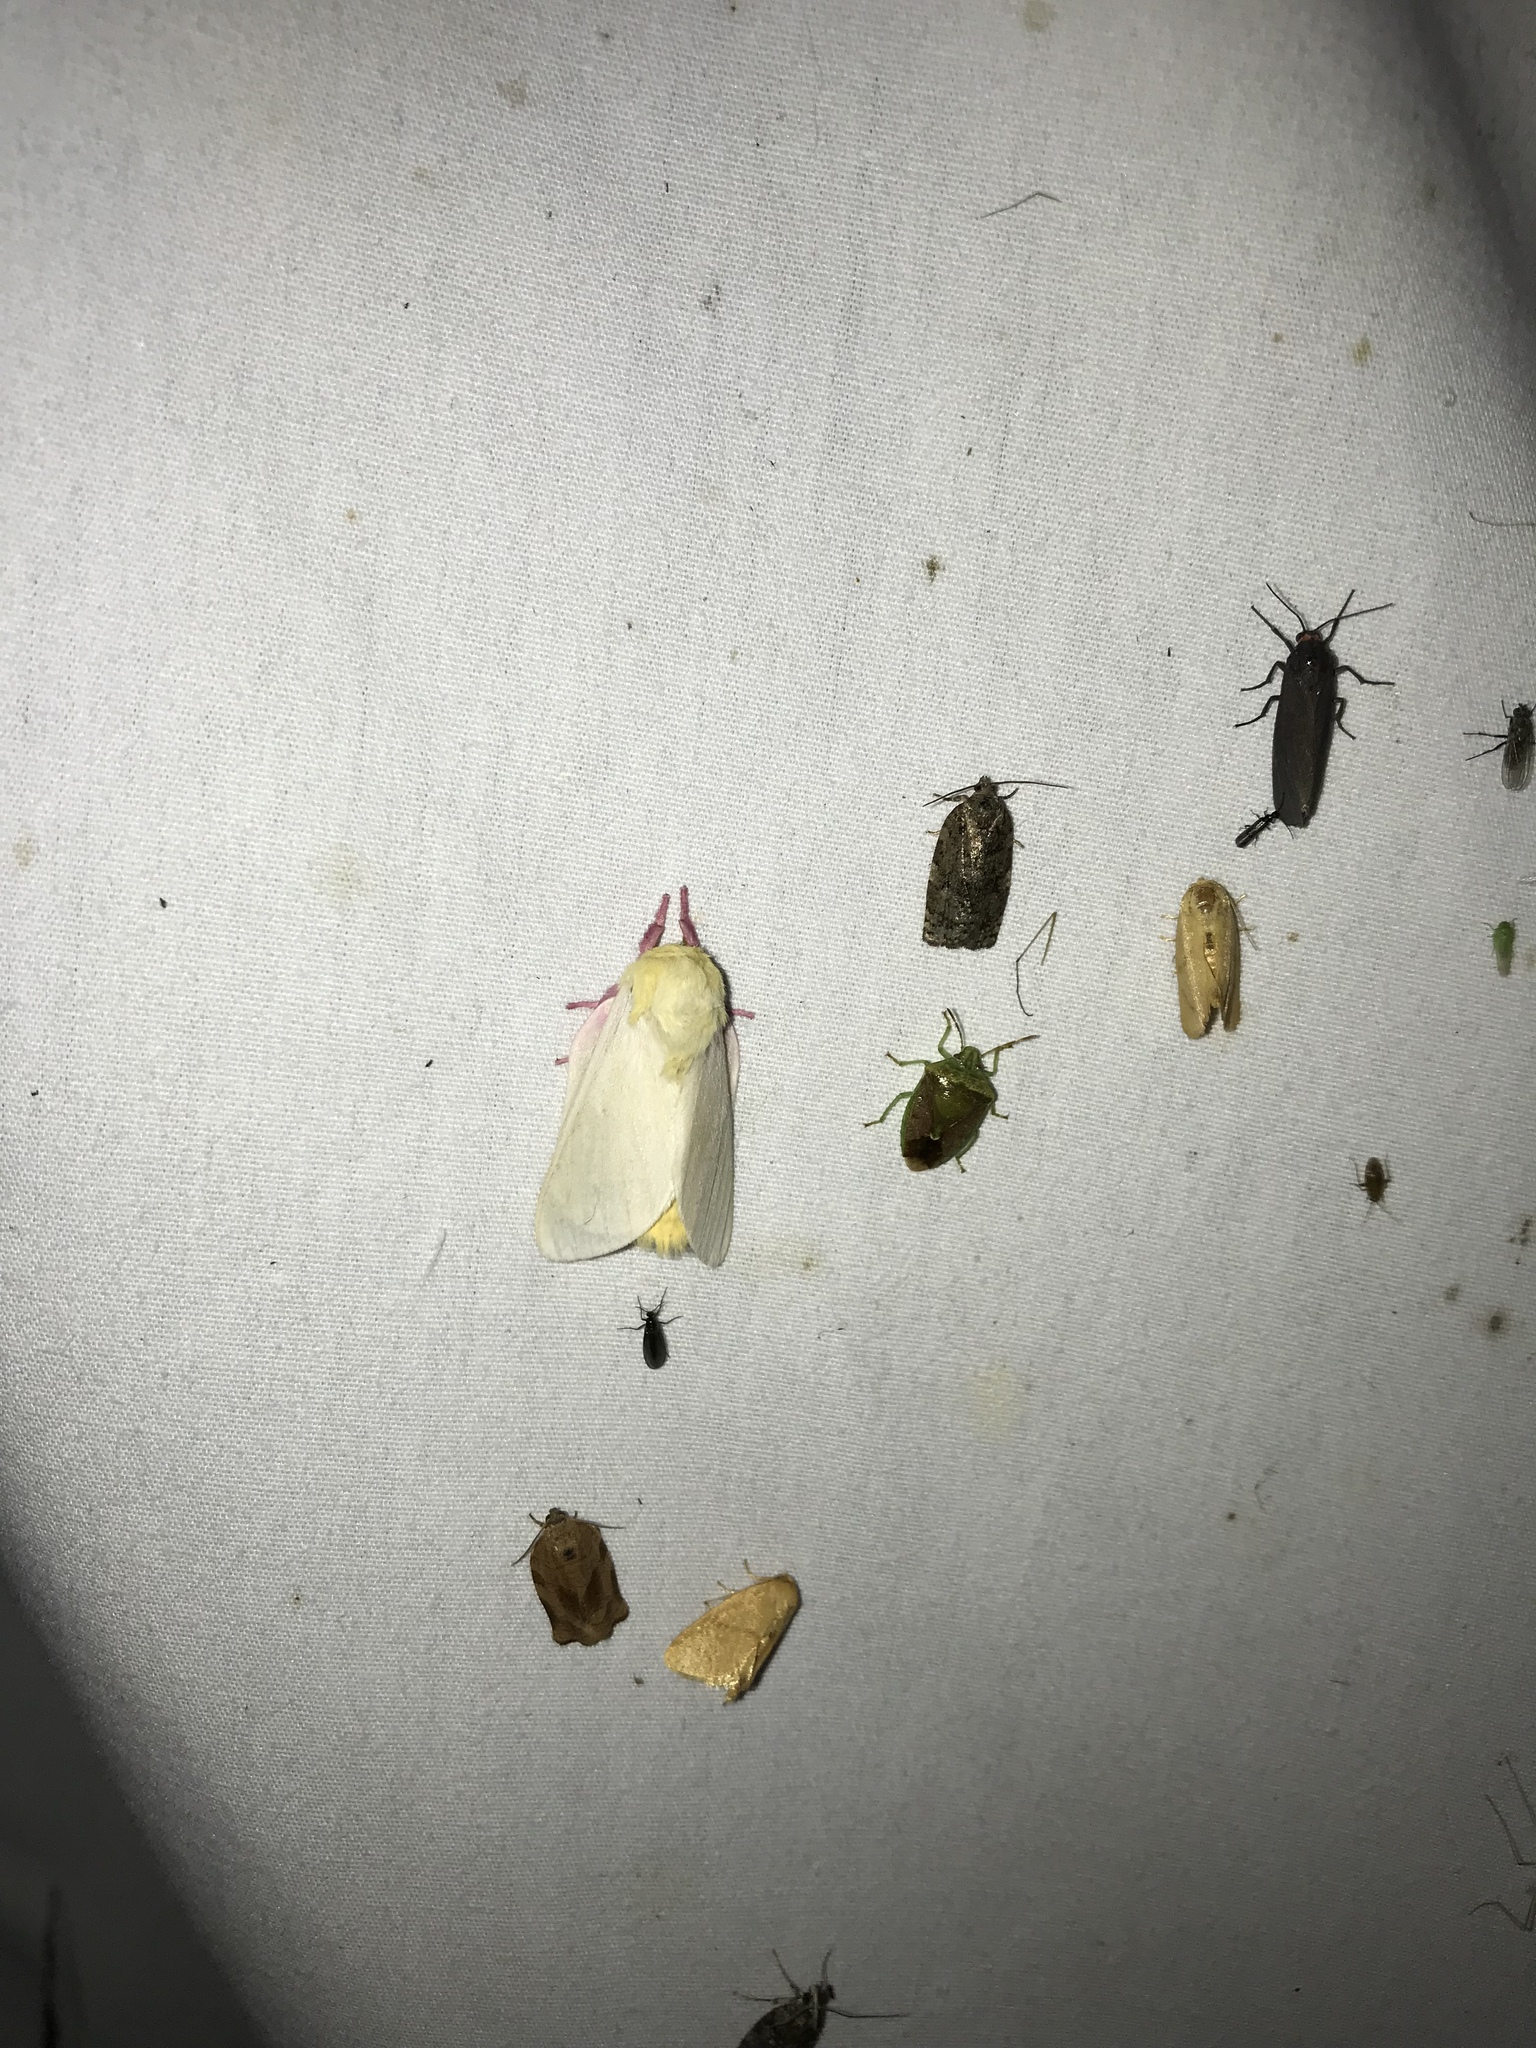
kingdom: Animalia
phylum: Arthropoda
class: Insecta
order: Lepidoptera
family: Saturniidae
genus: Dryocampa
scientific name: Dryocampa rubicunda
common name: Rosy maple moth
